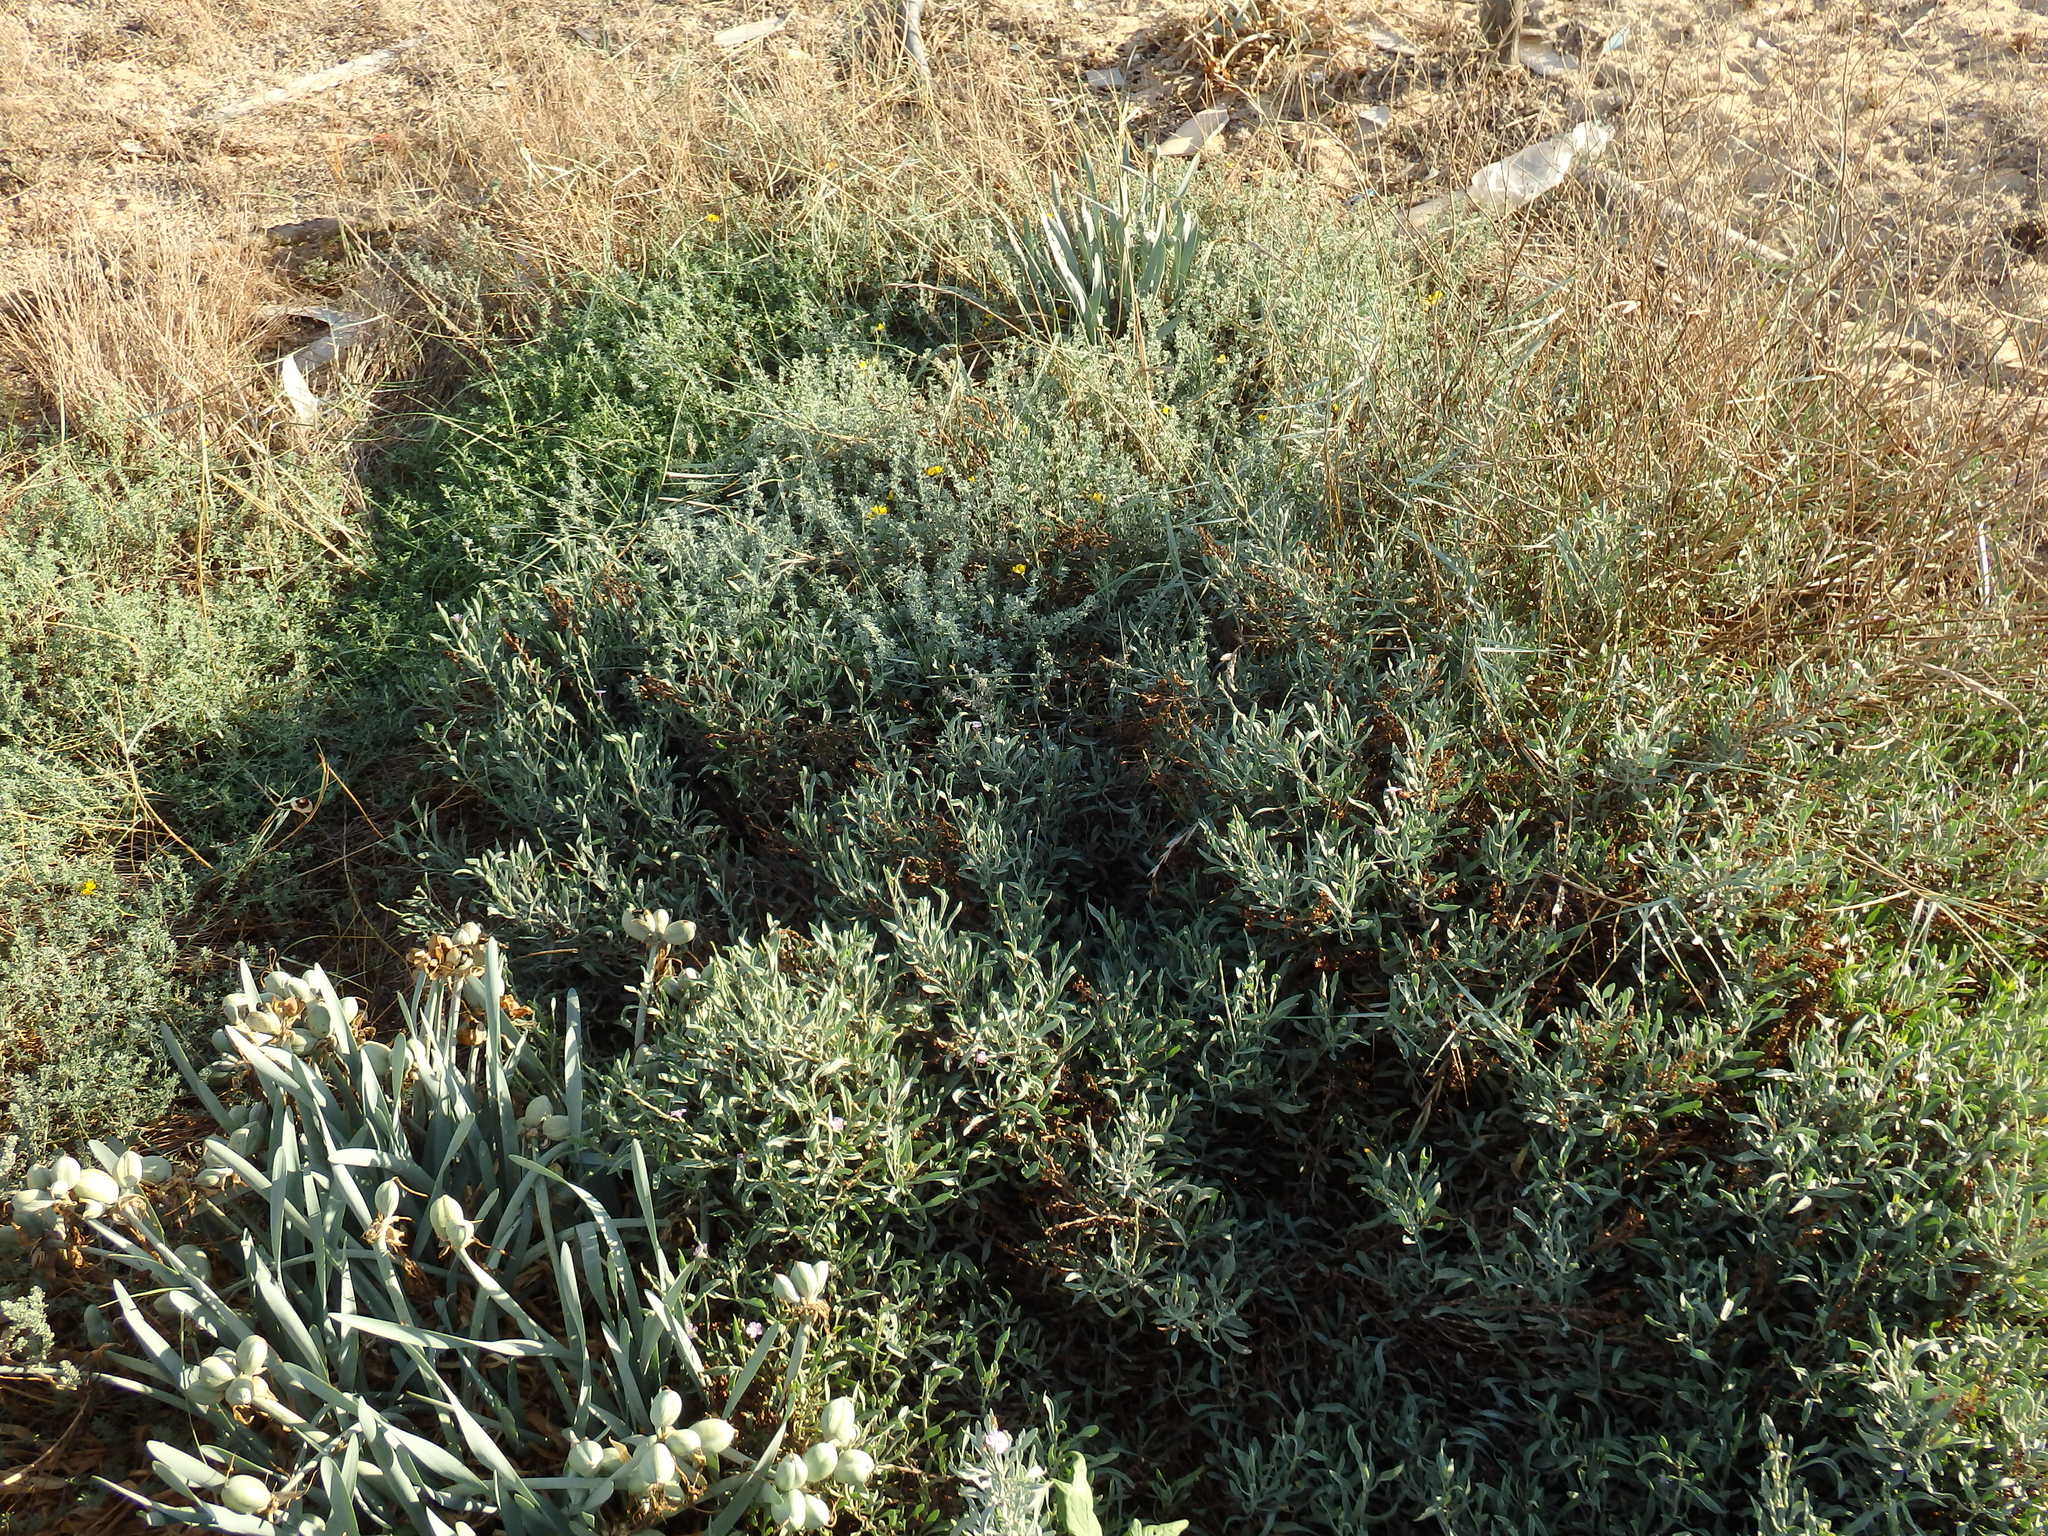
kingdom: Plantae
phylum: Tracheophyta
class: Magnoliopsida
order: Caryophyllales
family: Plumbaginaceae
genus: Limoniastrum
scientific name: Limoniastrum monopetalum
